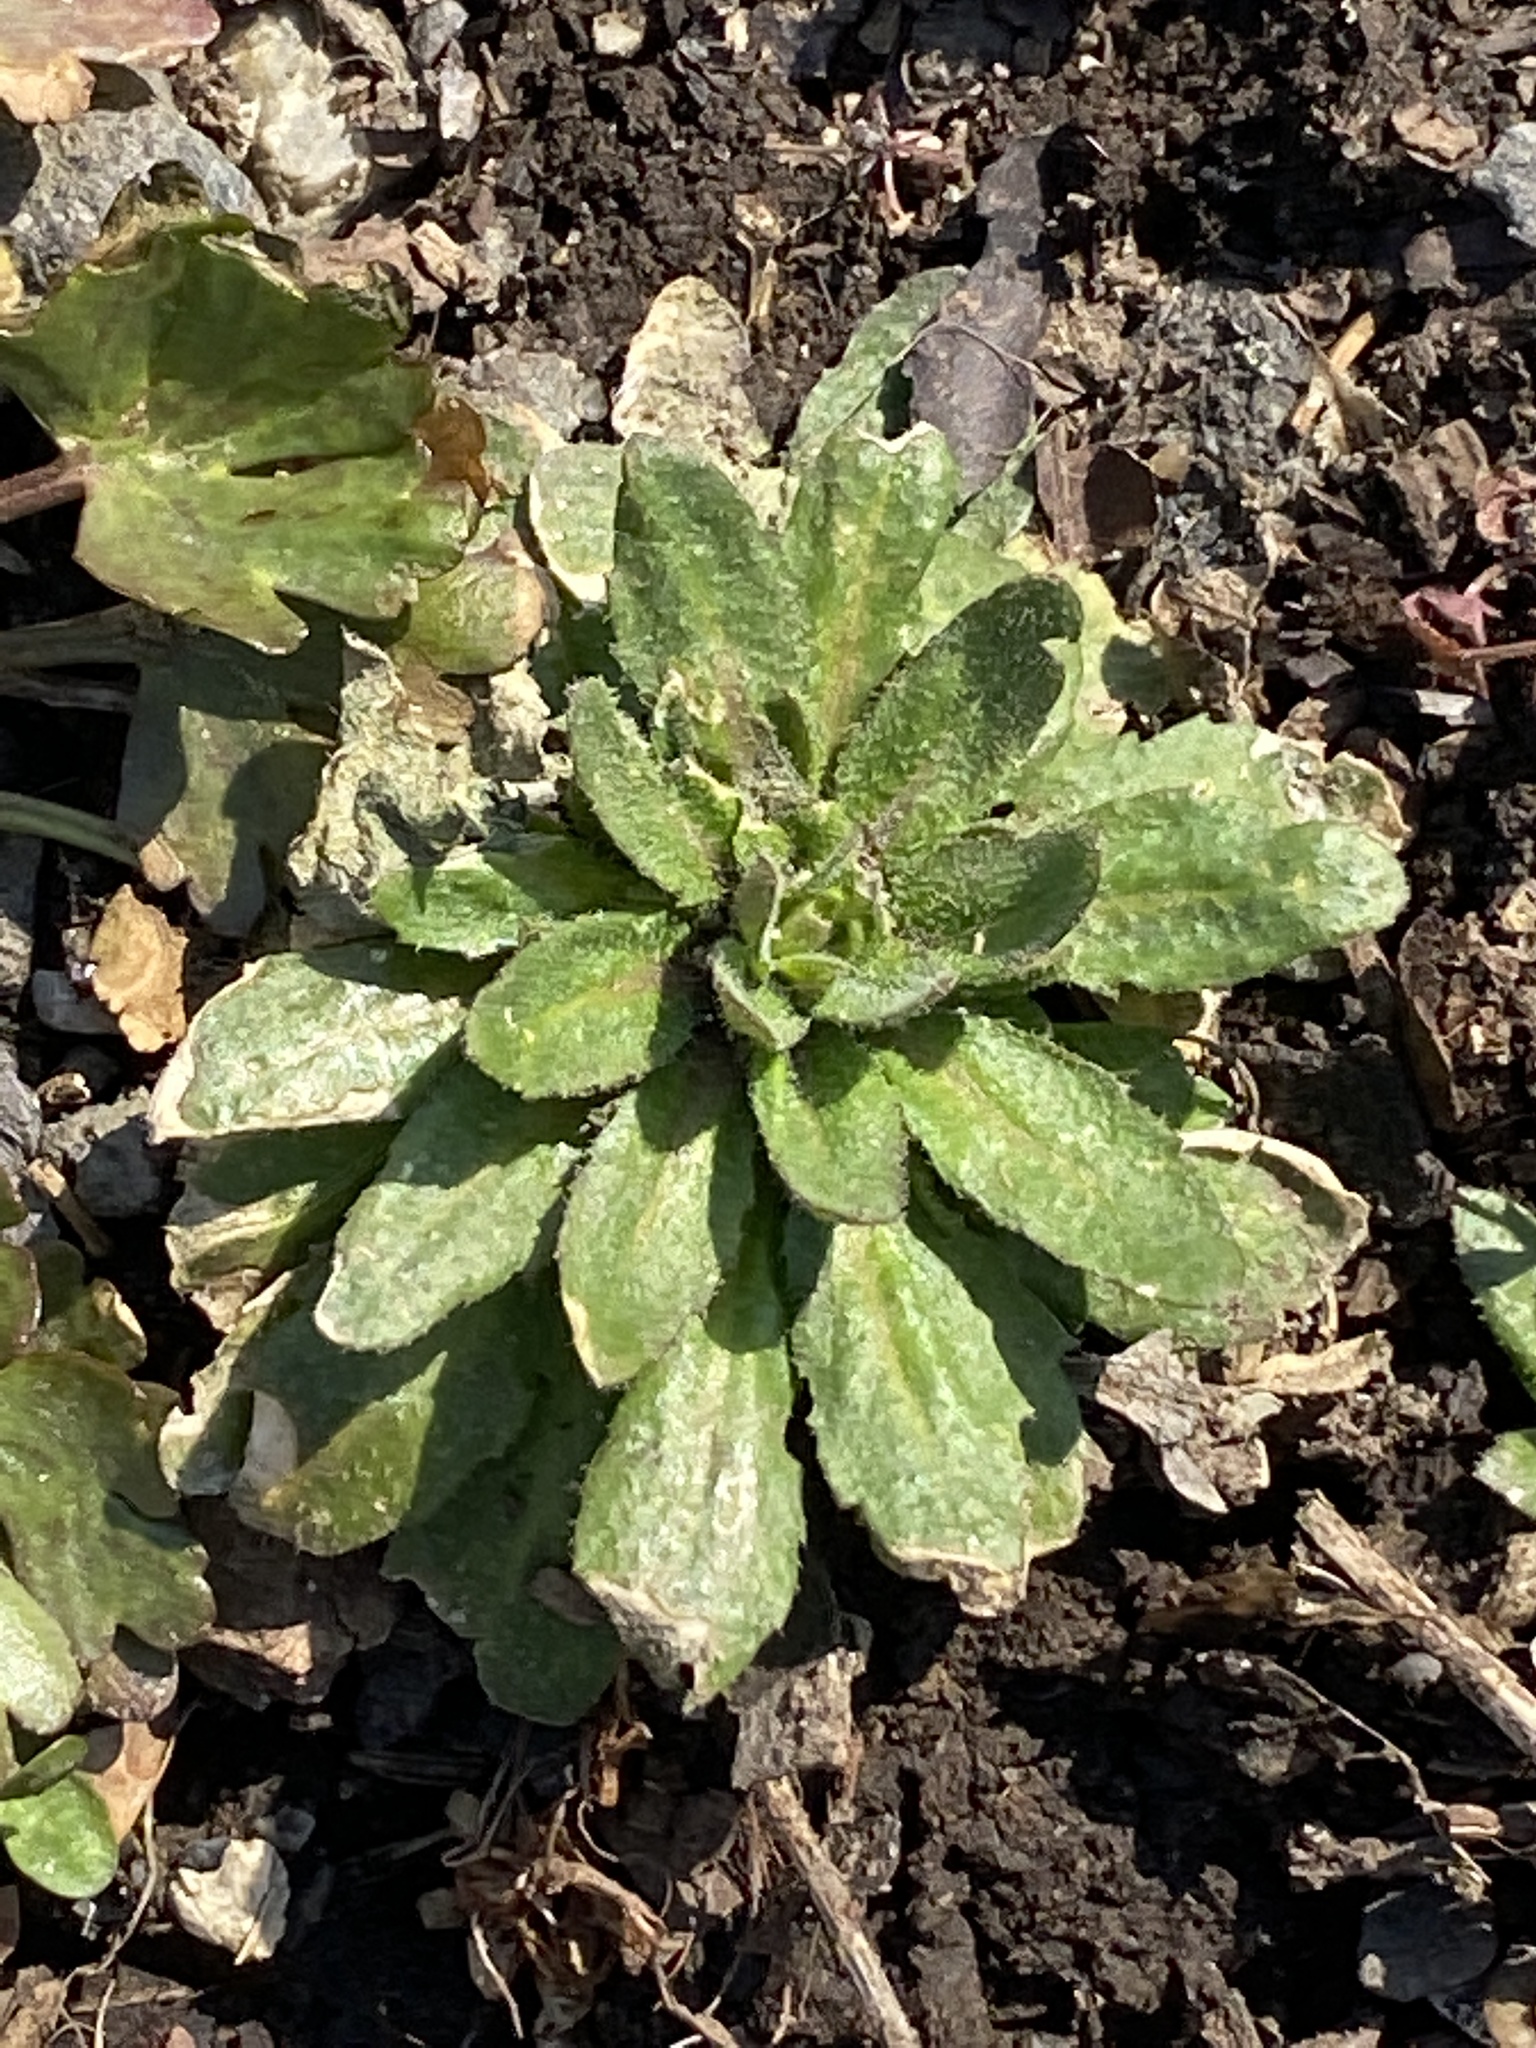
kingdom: Plantae
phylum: Tracheophyta
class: Magnoliopsida
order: Asterales
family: Asteraceae
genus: Erigeron
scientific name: Erigeron canadensis
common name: Canadian fleabane
